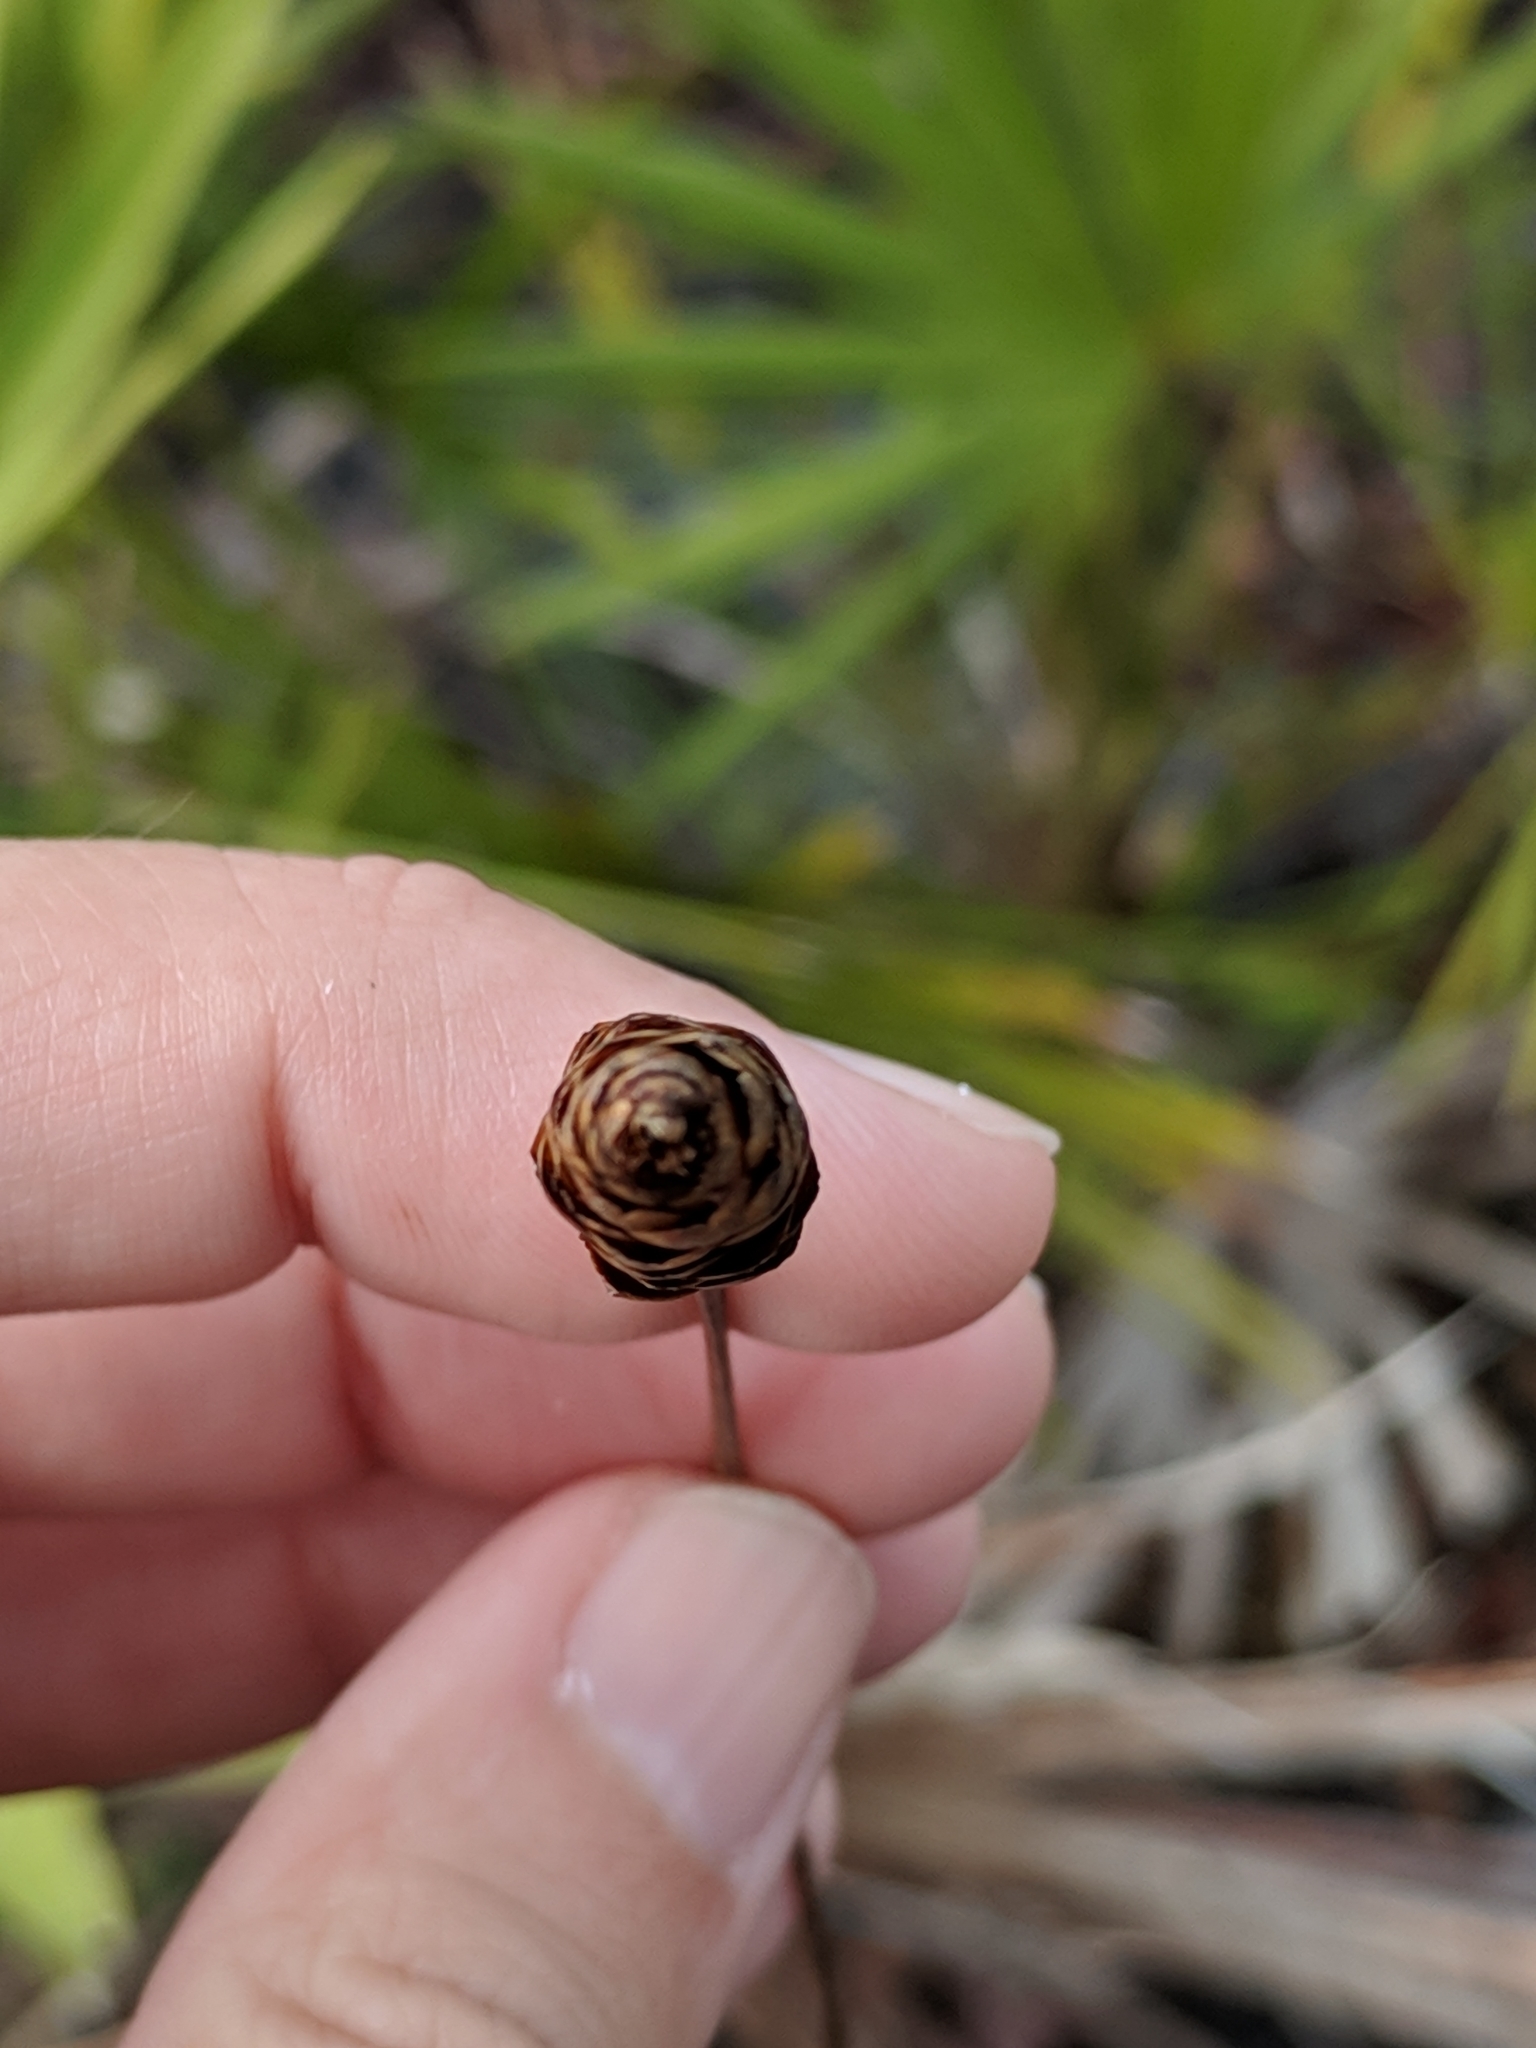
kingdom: Plantae
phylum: Tracheophyta
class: Liliopsida
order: Poales
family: Xyridaceae
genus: Xyris
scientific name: Xyris caroliniana
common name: Carolina yellow-eyed-grass
